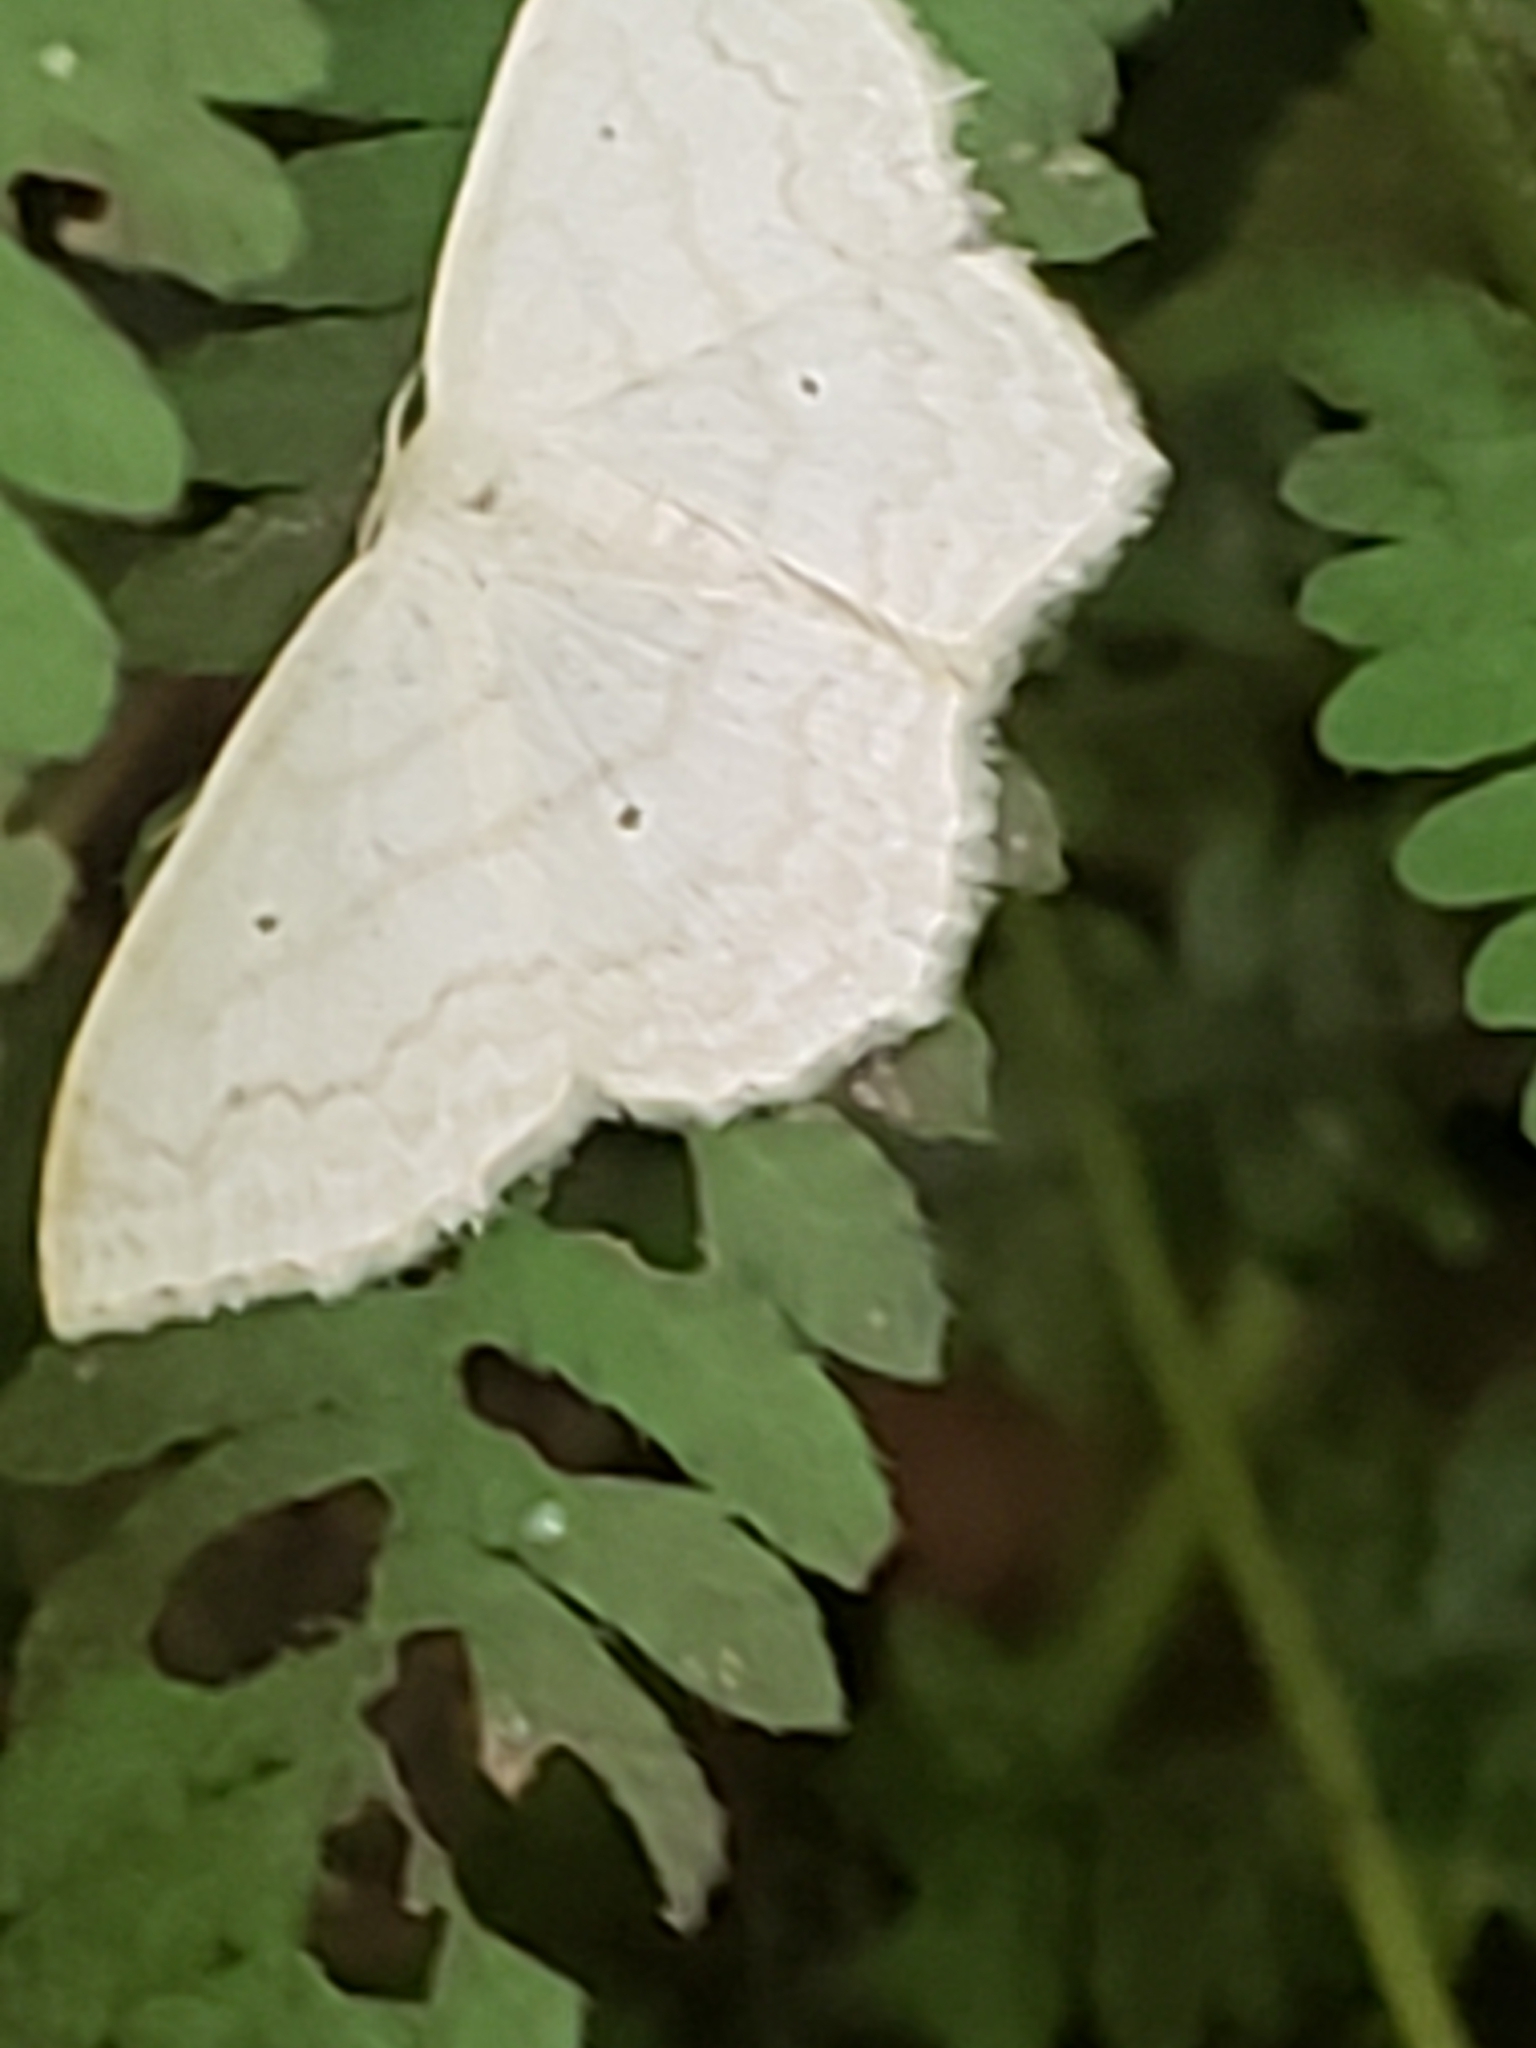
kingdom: Animalia
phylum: Arthropoda
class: Insecta
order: Lepidoptera
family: Geometridae
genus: Scopula
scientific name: Scopula limboundata
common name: Large lace border
